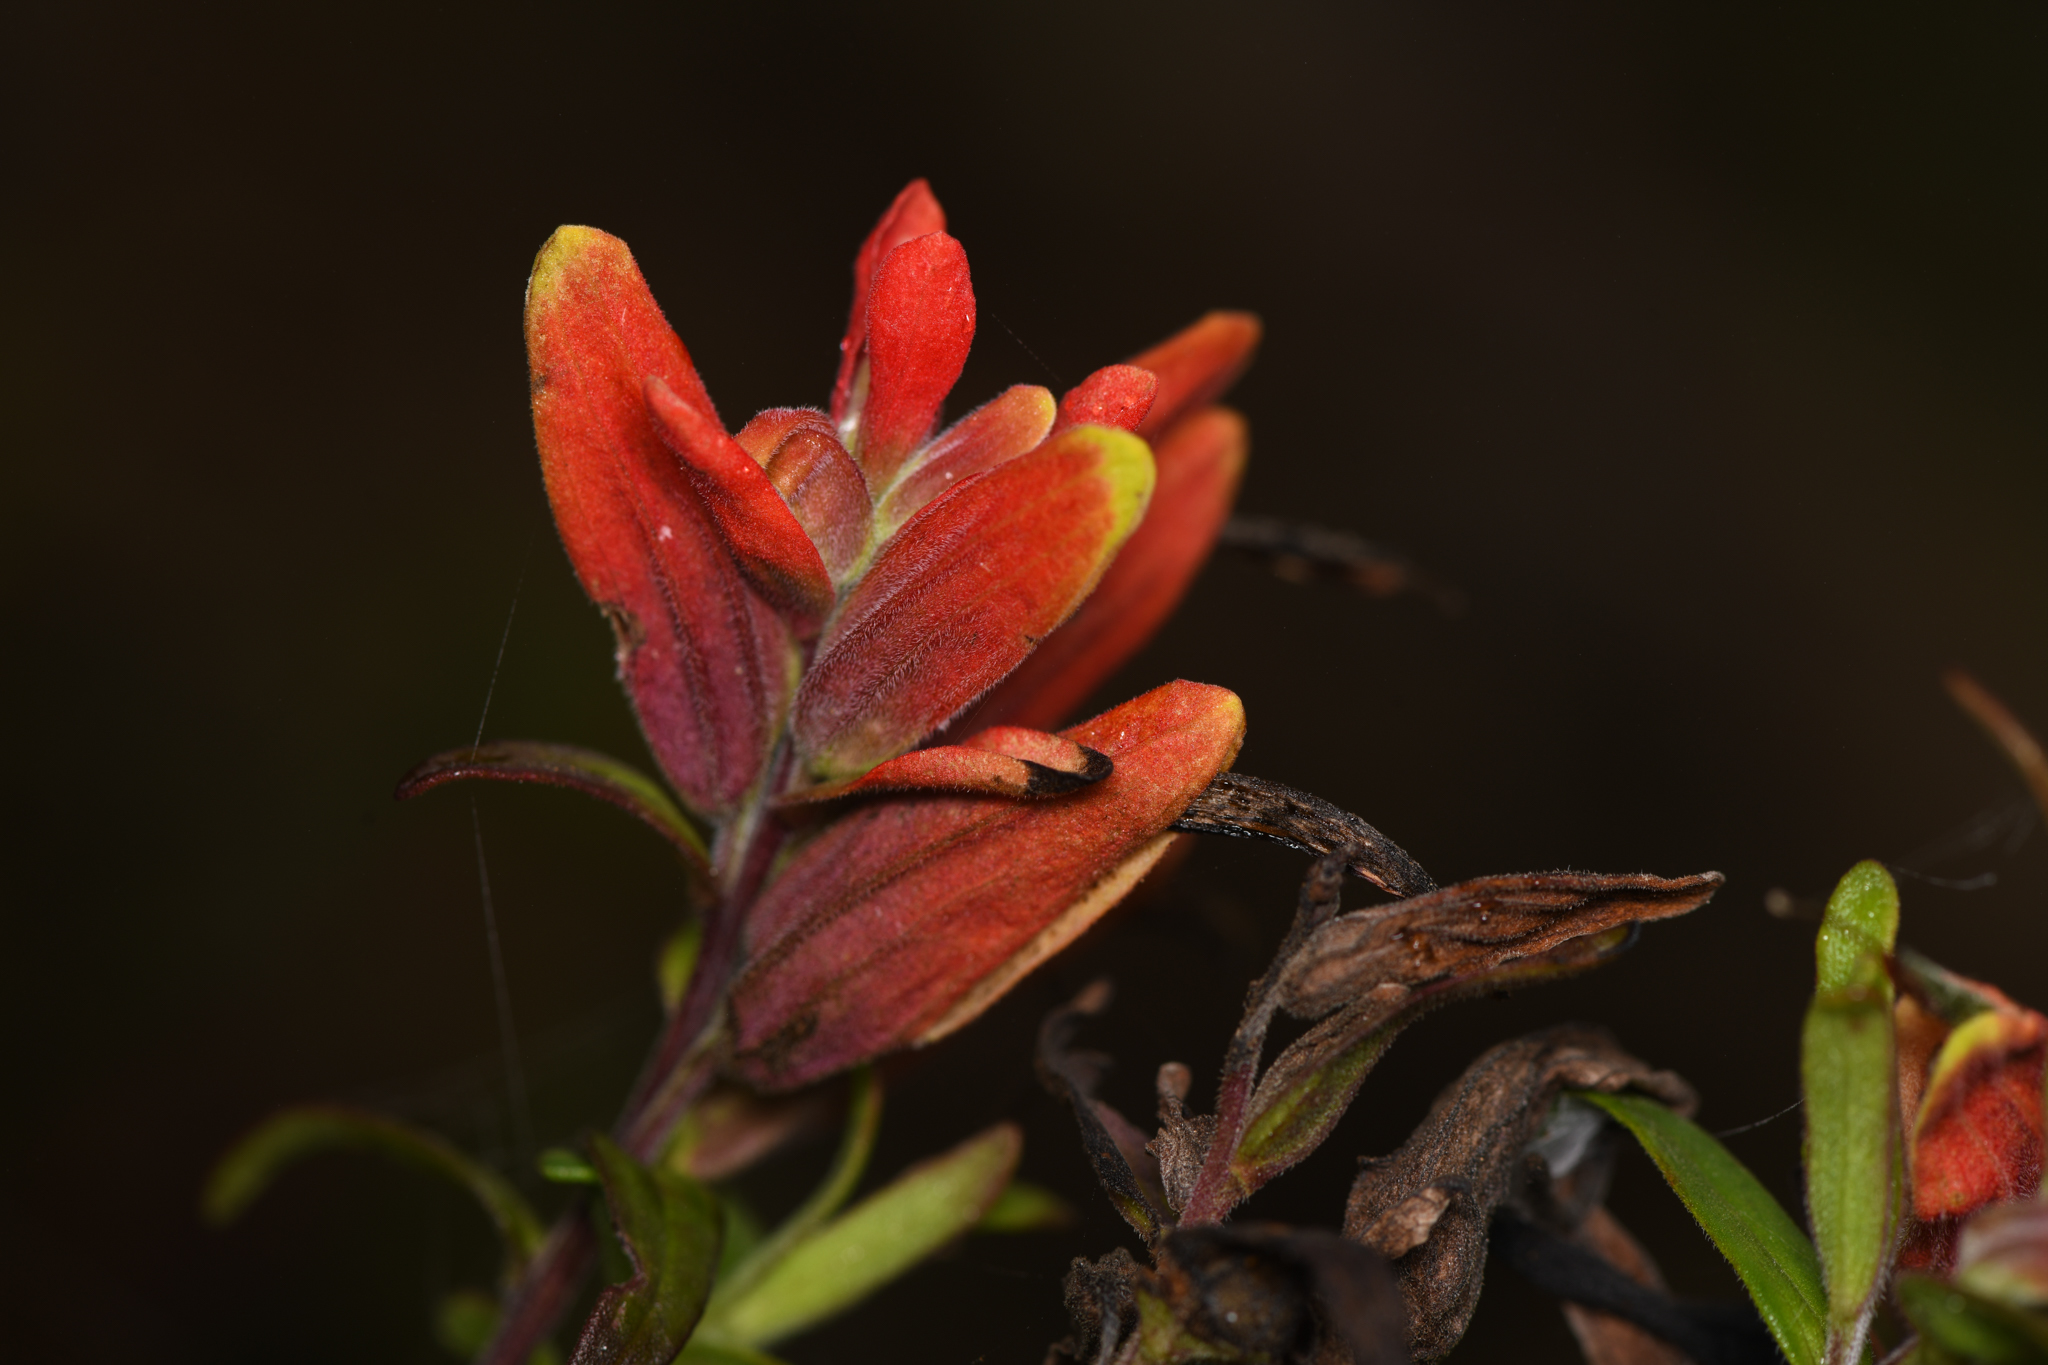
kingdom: Plantae
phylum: Tracheophyta
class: Magnoliopsida
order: Lamiales
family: Orobanchaceae
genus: Castilleja
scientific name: Castilleja quirosii
